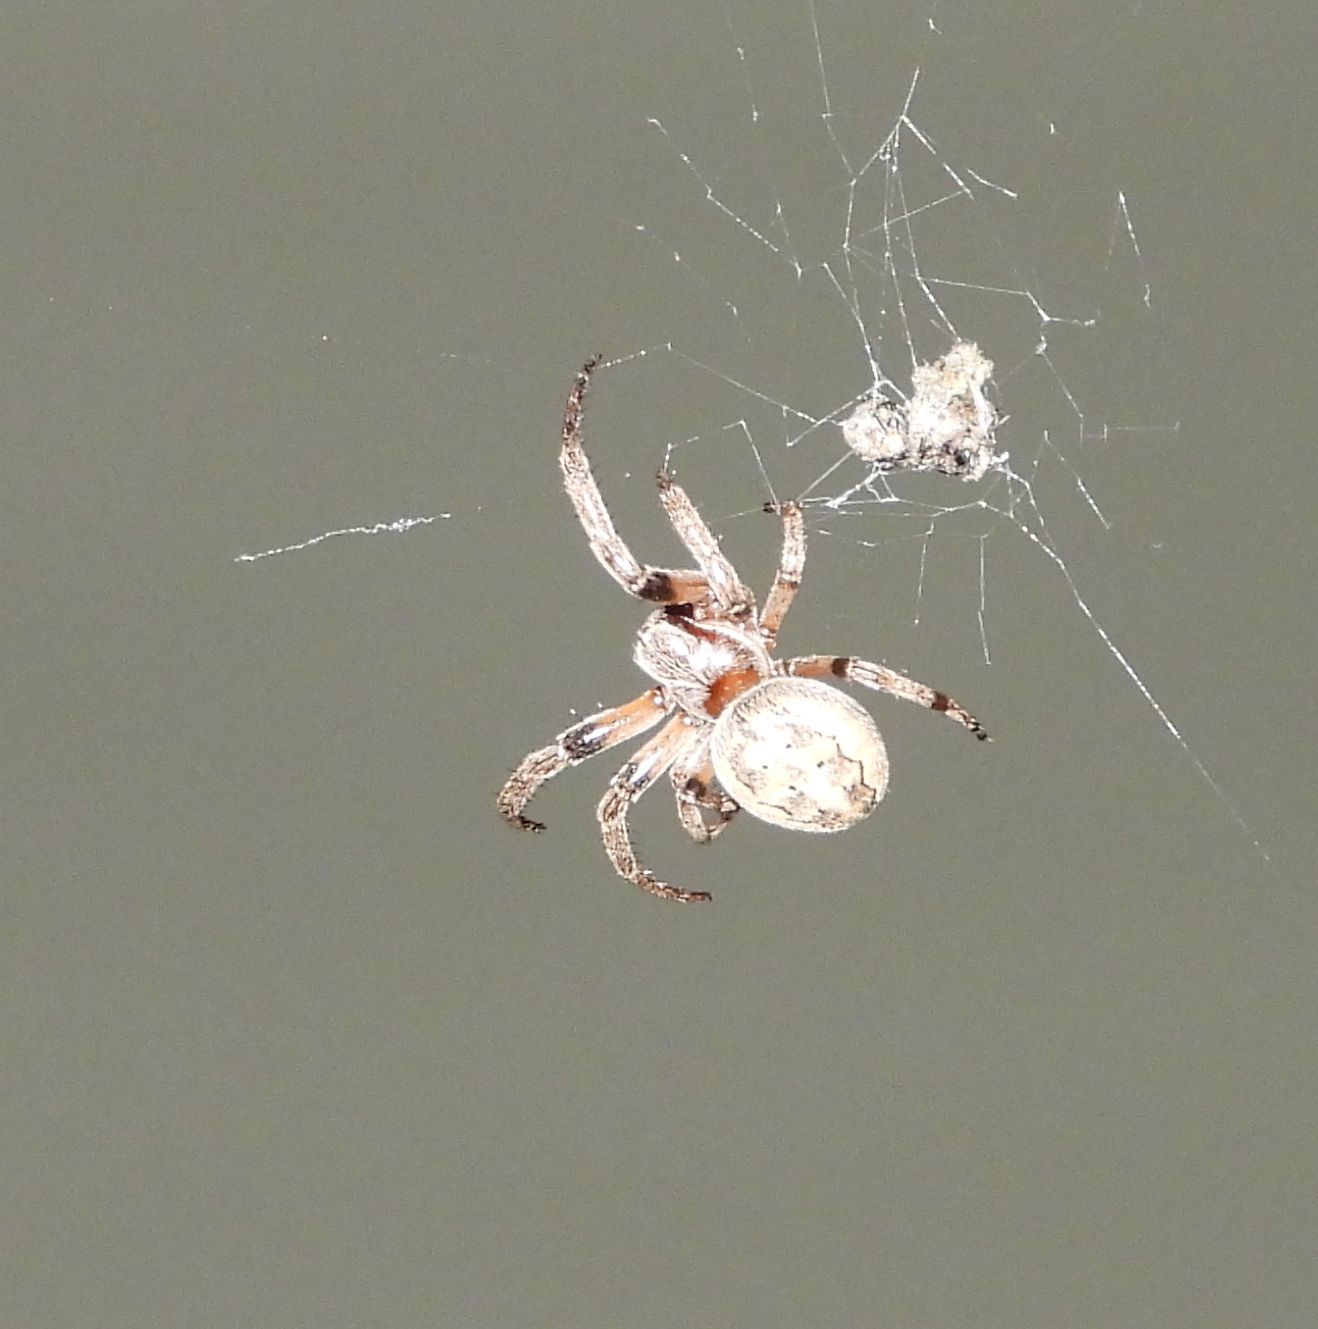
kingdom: Animalia
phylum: Arthropoda
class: Arachnida
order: Araneae
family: Araneidae
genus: Larinioides
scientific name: Larinioides cornutus
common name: Furrow orbweaver
